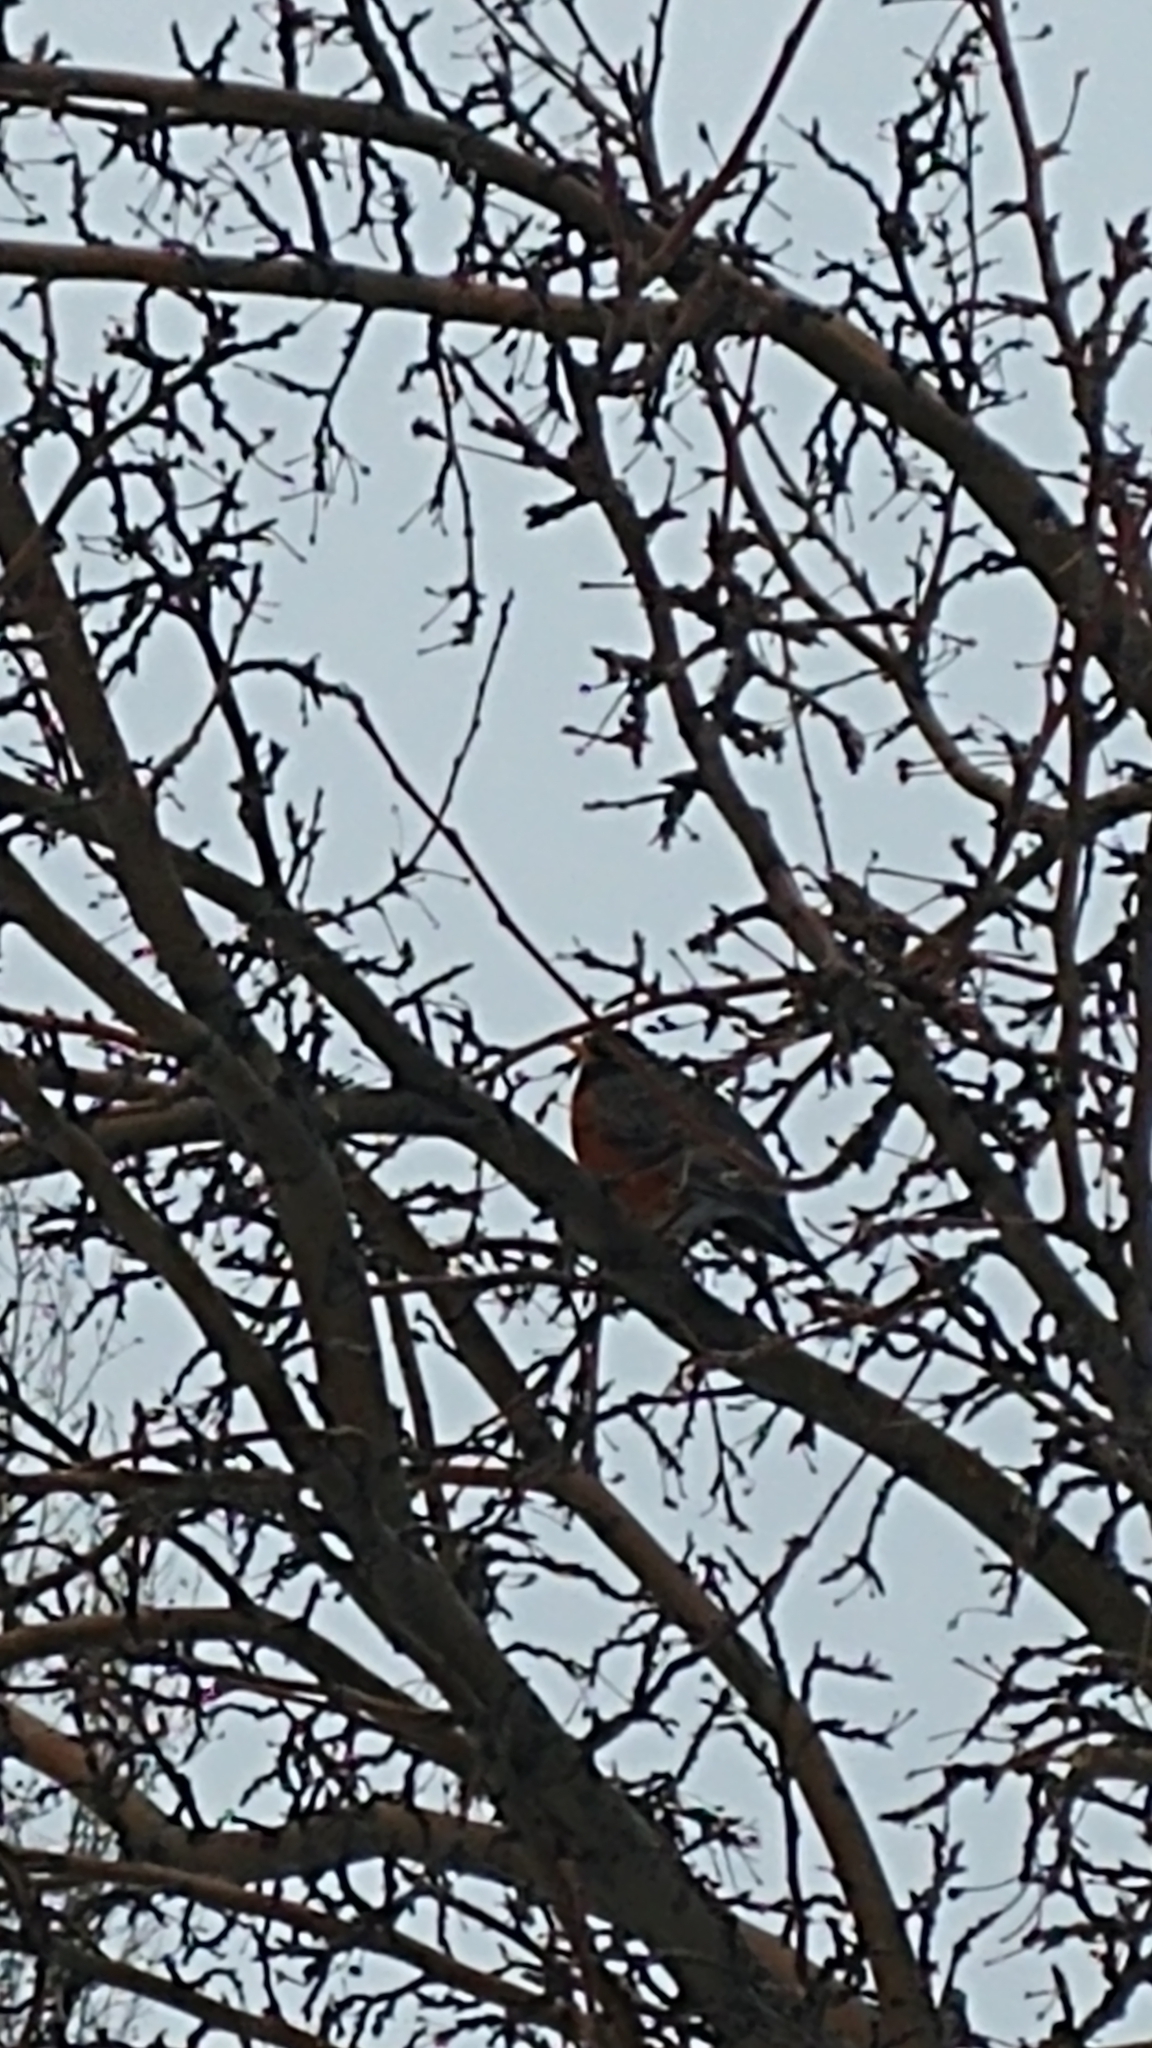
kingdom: Animalia
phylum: Chordata
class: Aves
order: Passeriformes
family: Turdidae
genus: Turdus
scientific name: Turdus migratorius
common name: American robin
